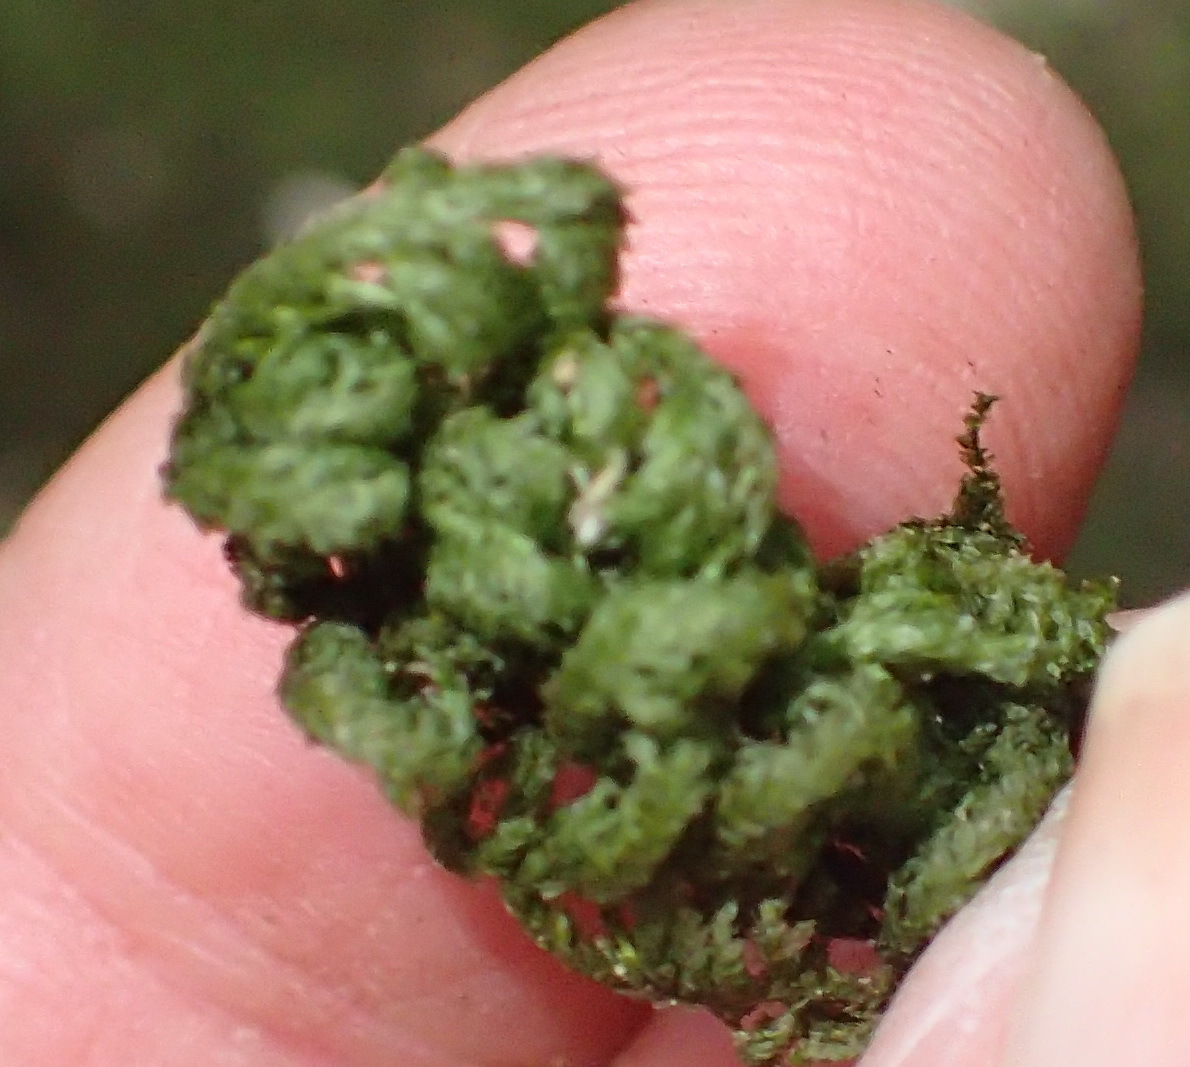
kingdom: Plantae
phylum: Bryophyta
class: Bryopsida
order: Hypnales
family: Neckeraceae
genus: Leptodon
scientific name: Leptodon smithii
